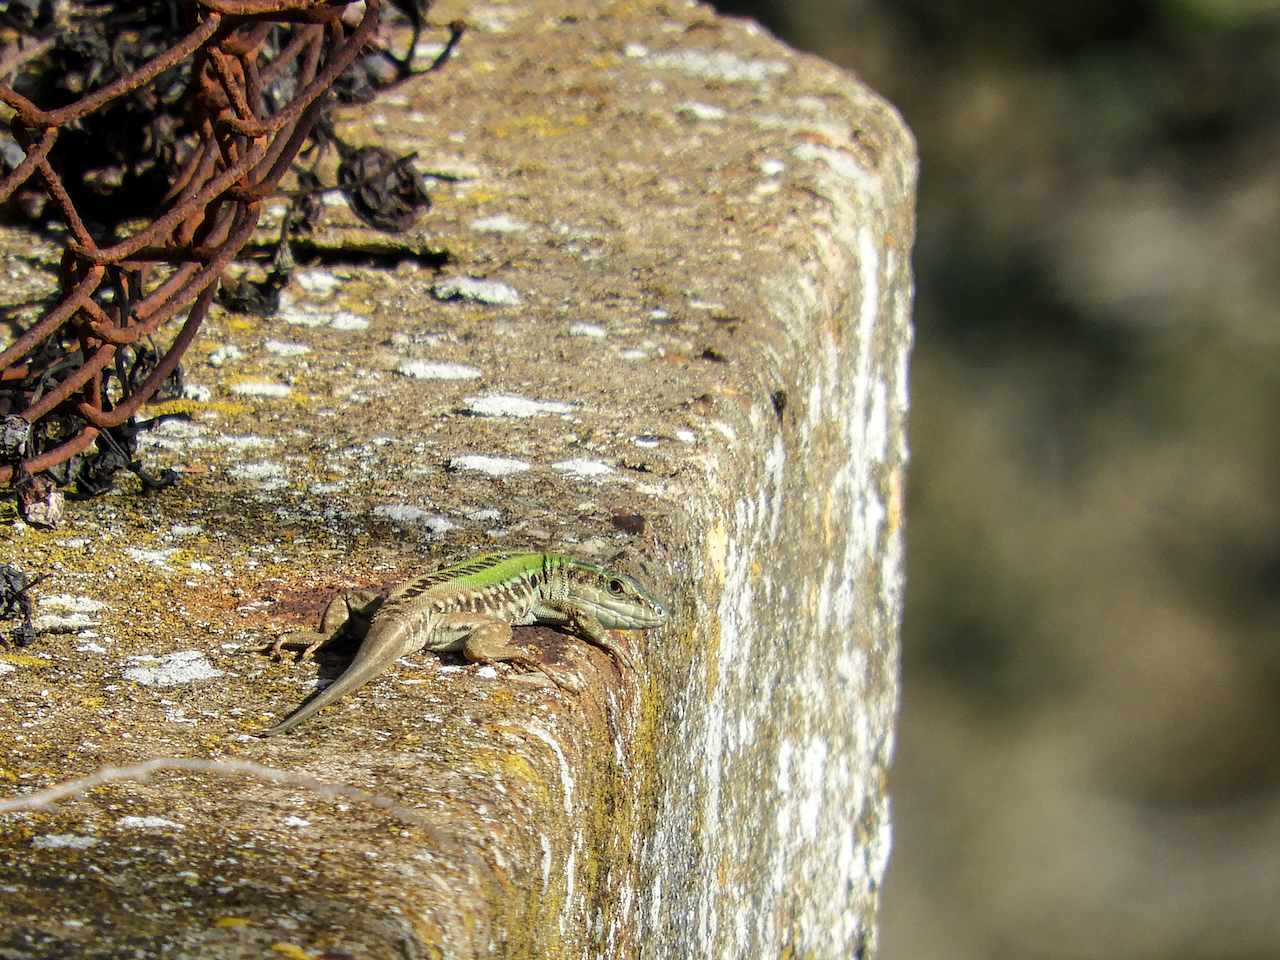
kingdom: Animalia
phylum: Chordata
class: Squamata
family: Lacertidae
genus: Podarcis
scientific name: Podarcis siculus
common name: Italian wall lizard
